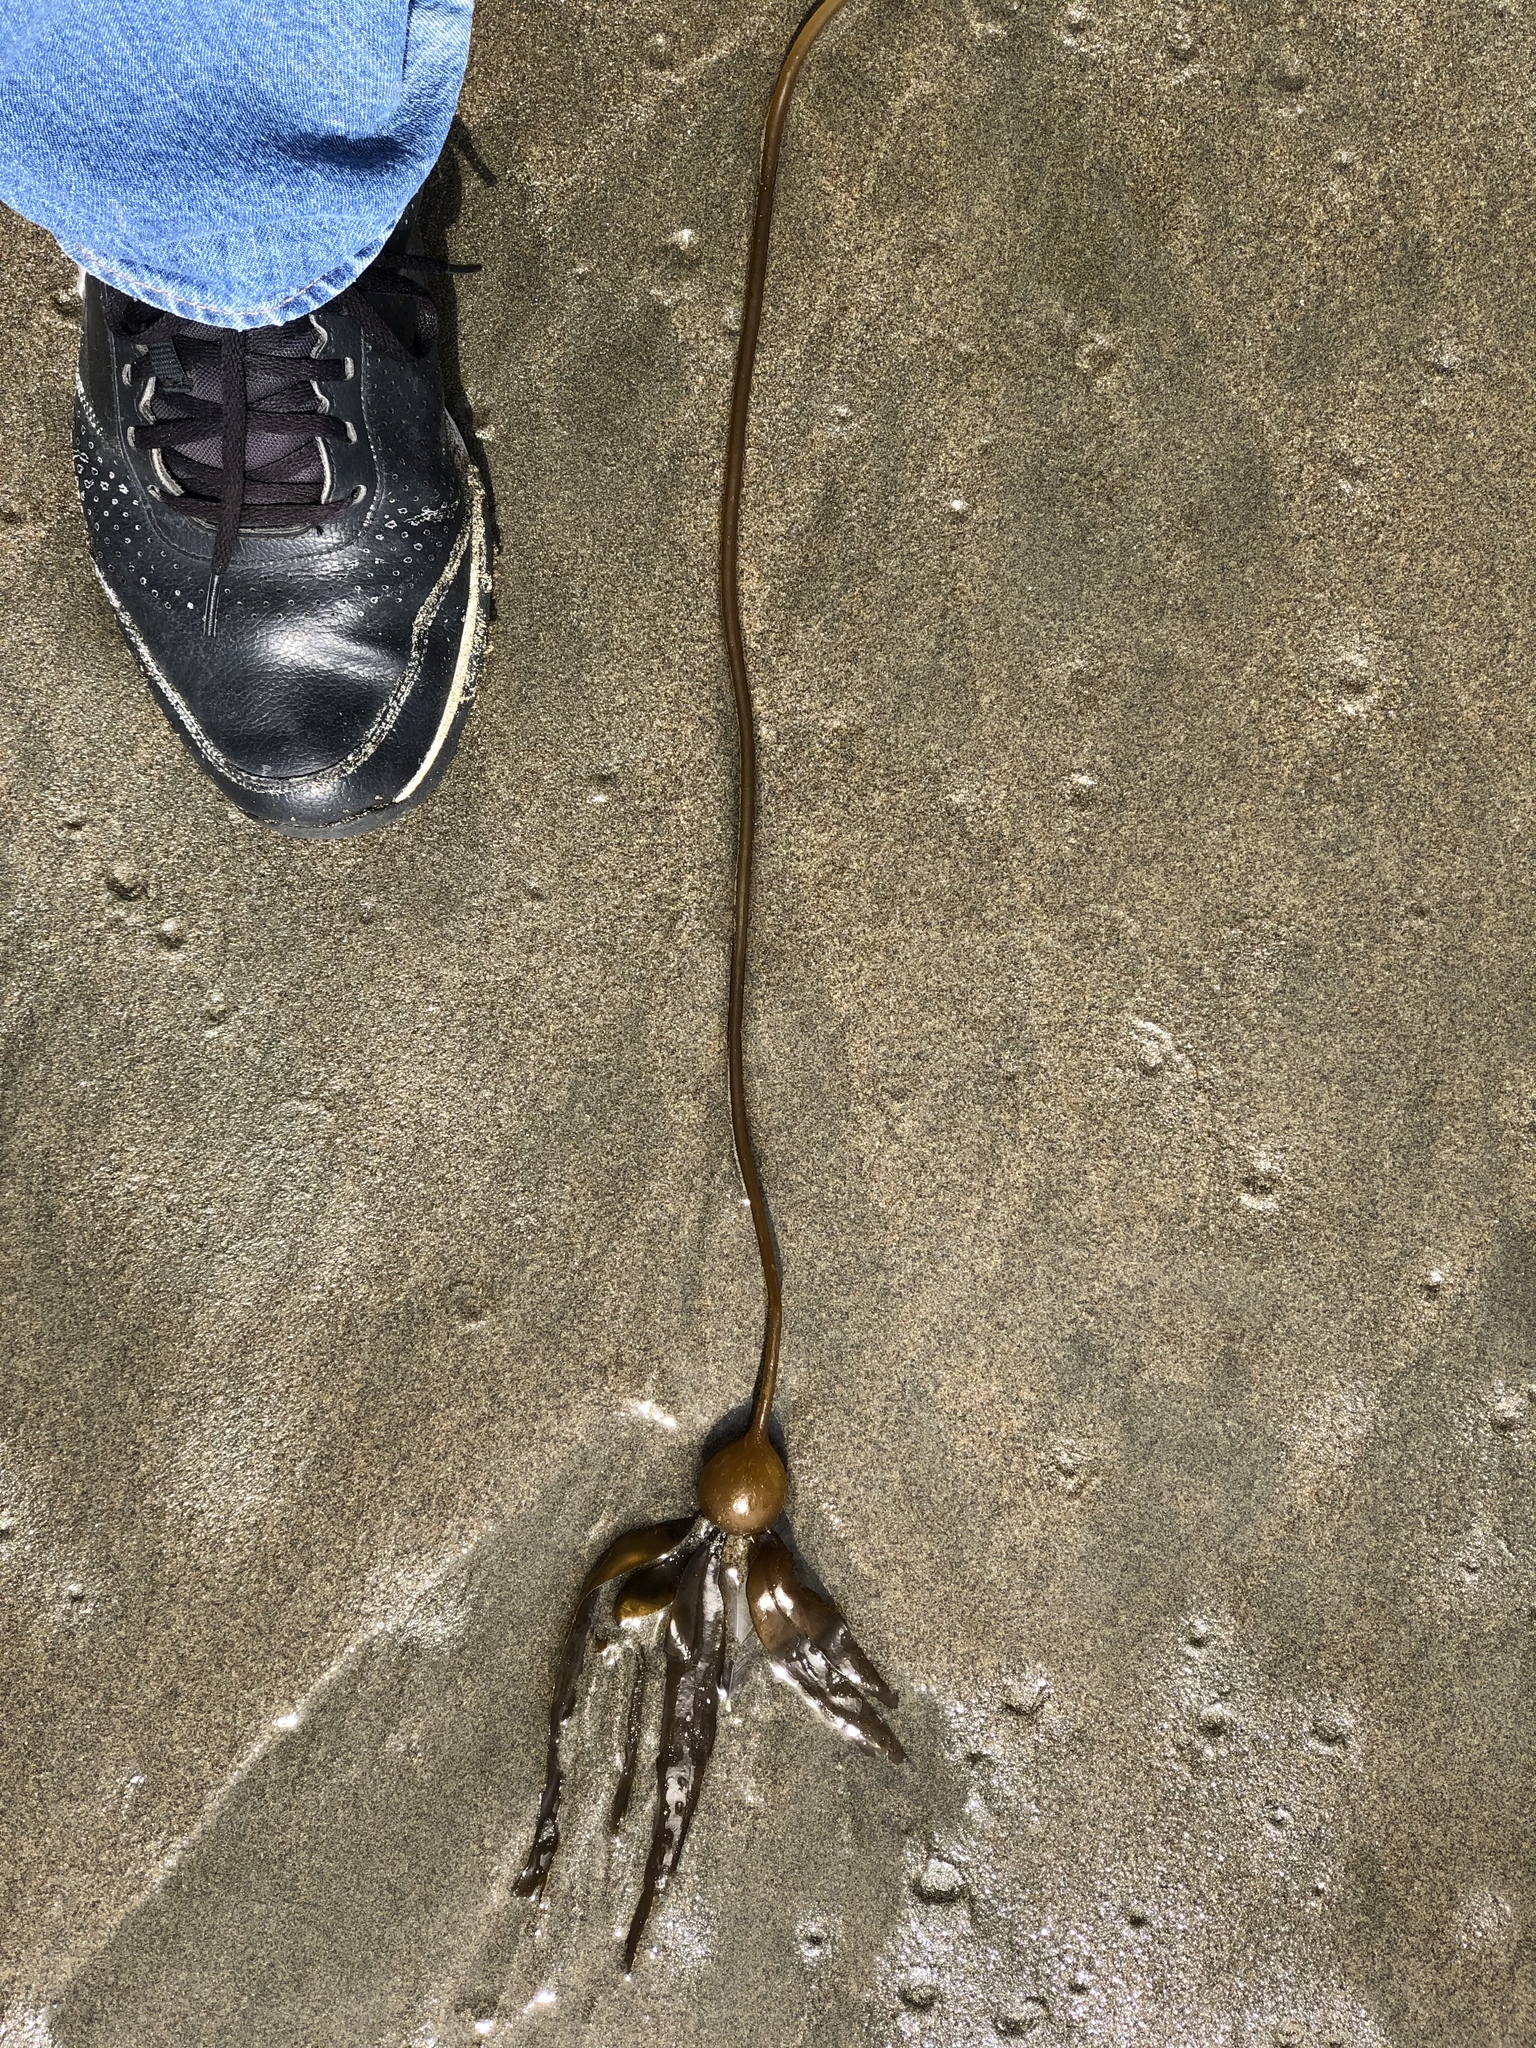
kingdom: Chromista
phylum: Ochrophyta
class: Phaeophyceae
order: Laminariales
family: Laminariaceae
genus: Nereocystis
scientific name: Nereocystis luetkeana
